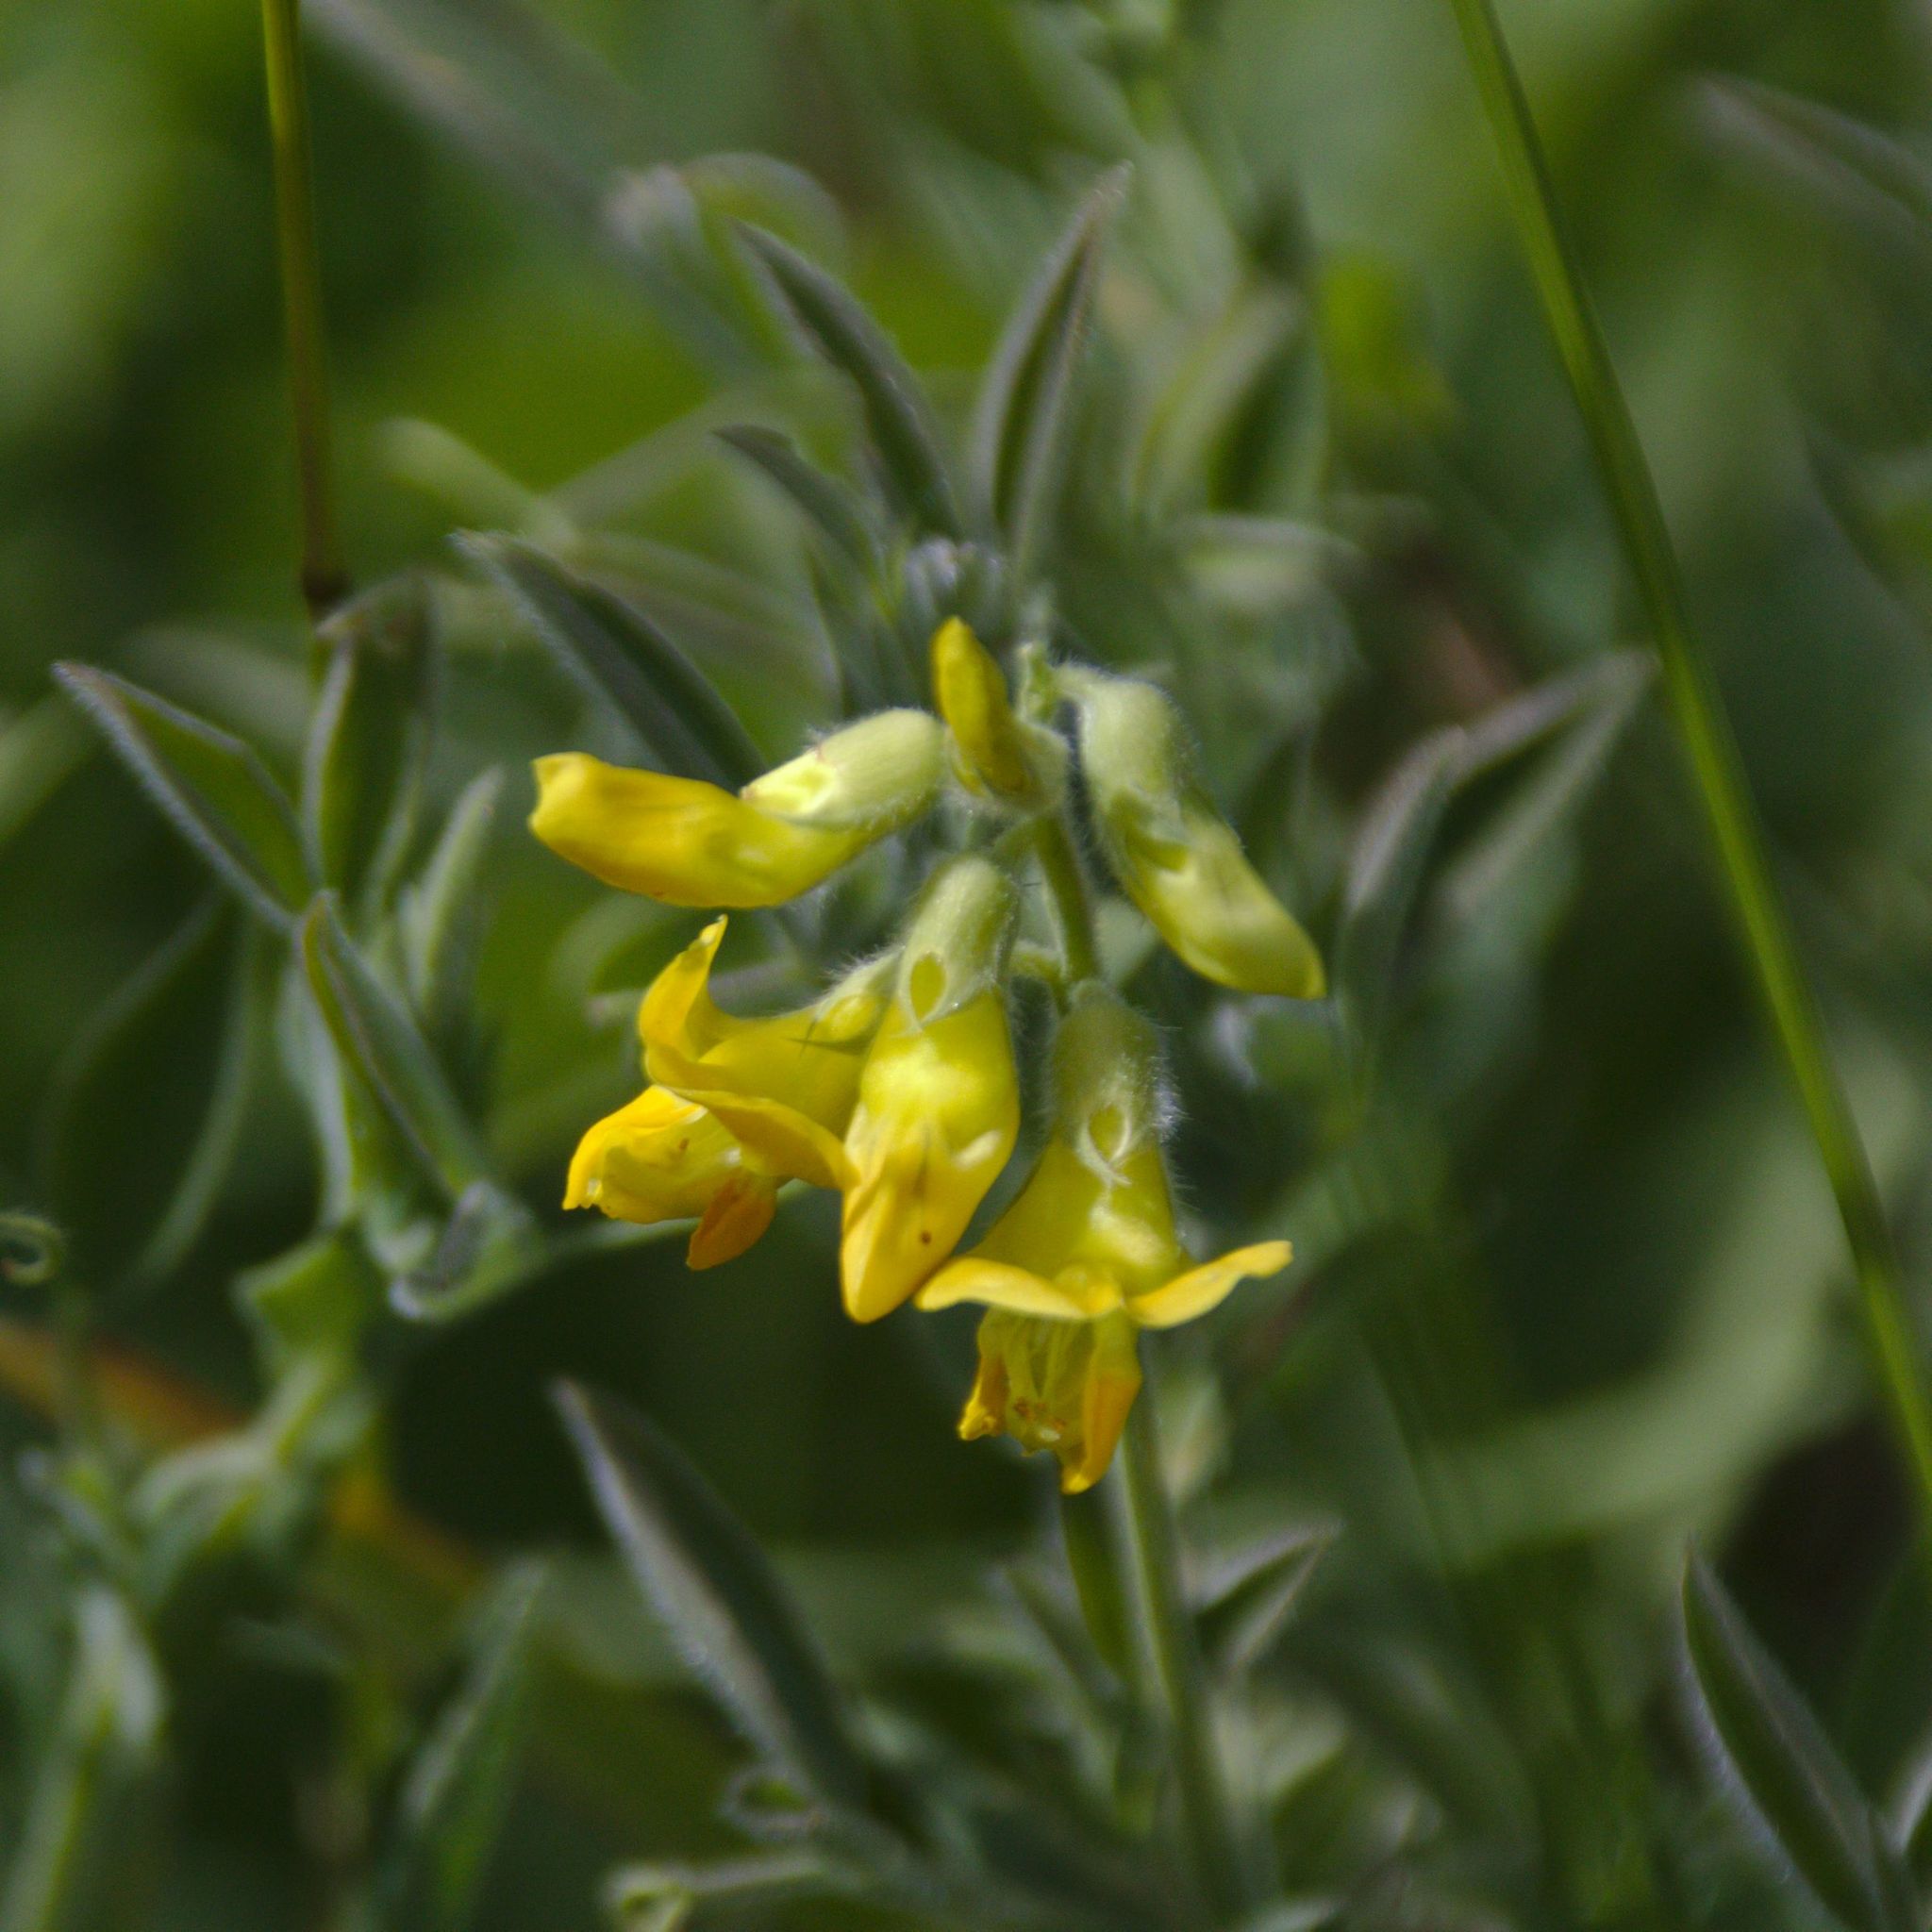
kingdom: Plantae
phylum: Tracheophyta
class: Magnoliopsida
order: Fabales
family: Fabaceae
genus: Lathyrus
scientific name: Lathyrus pratensis
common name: Meadow vetchling
